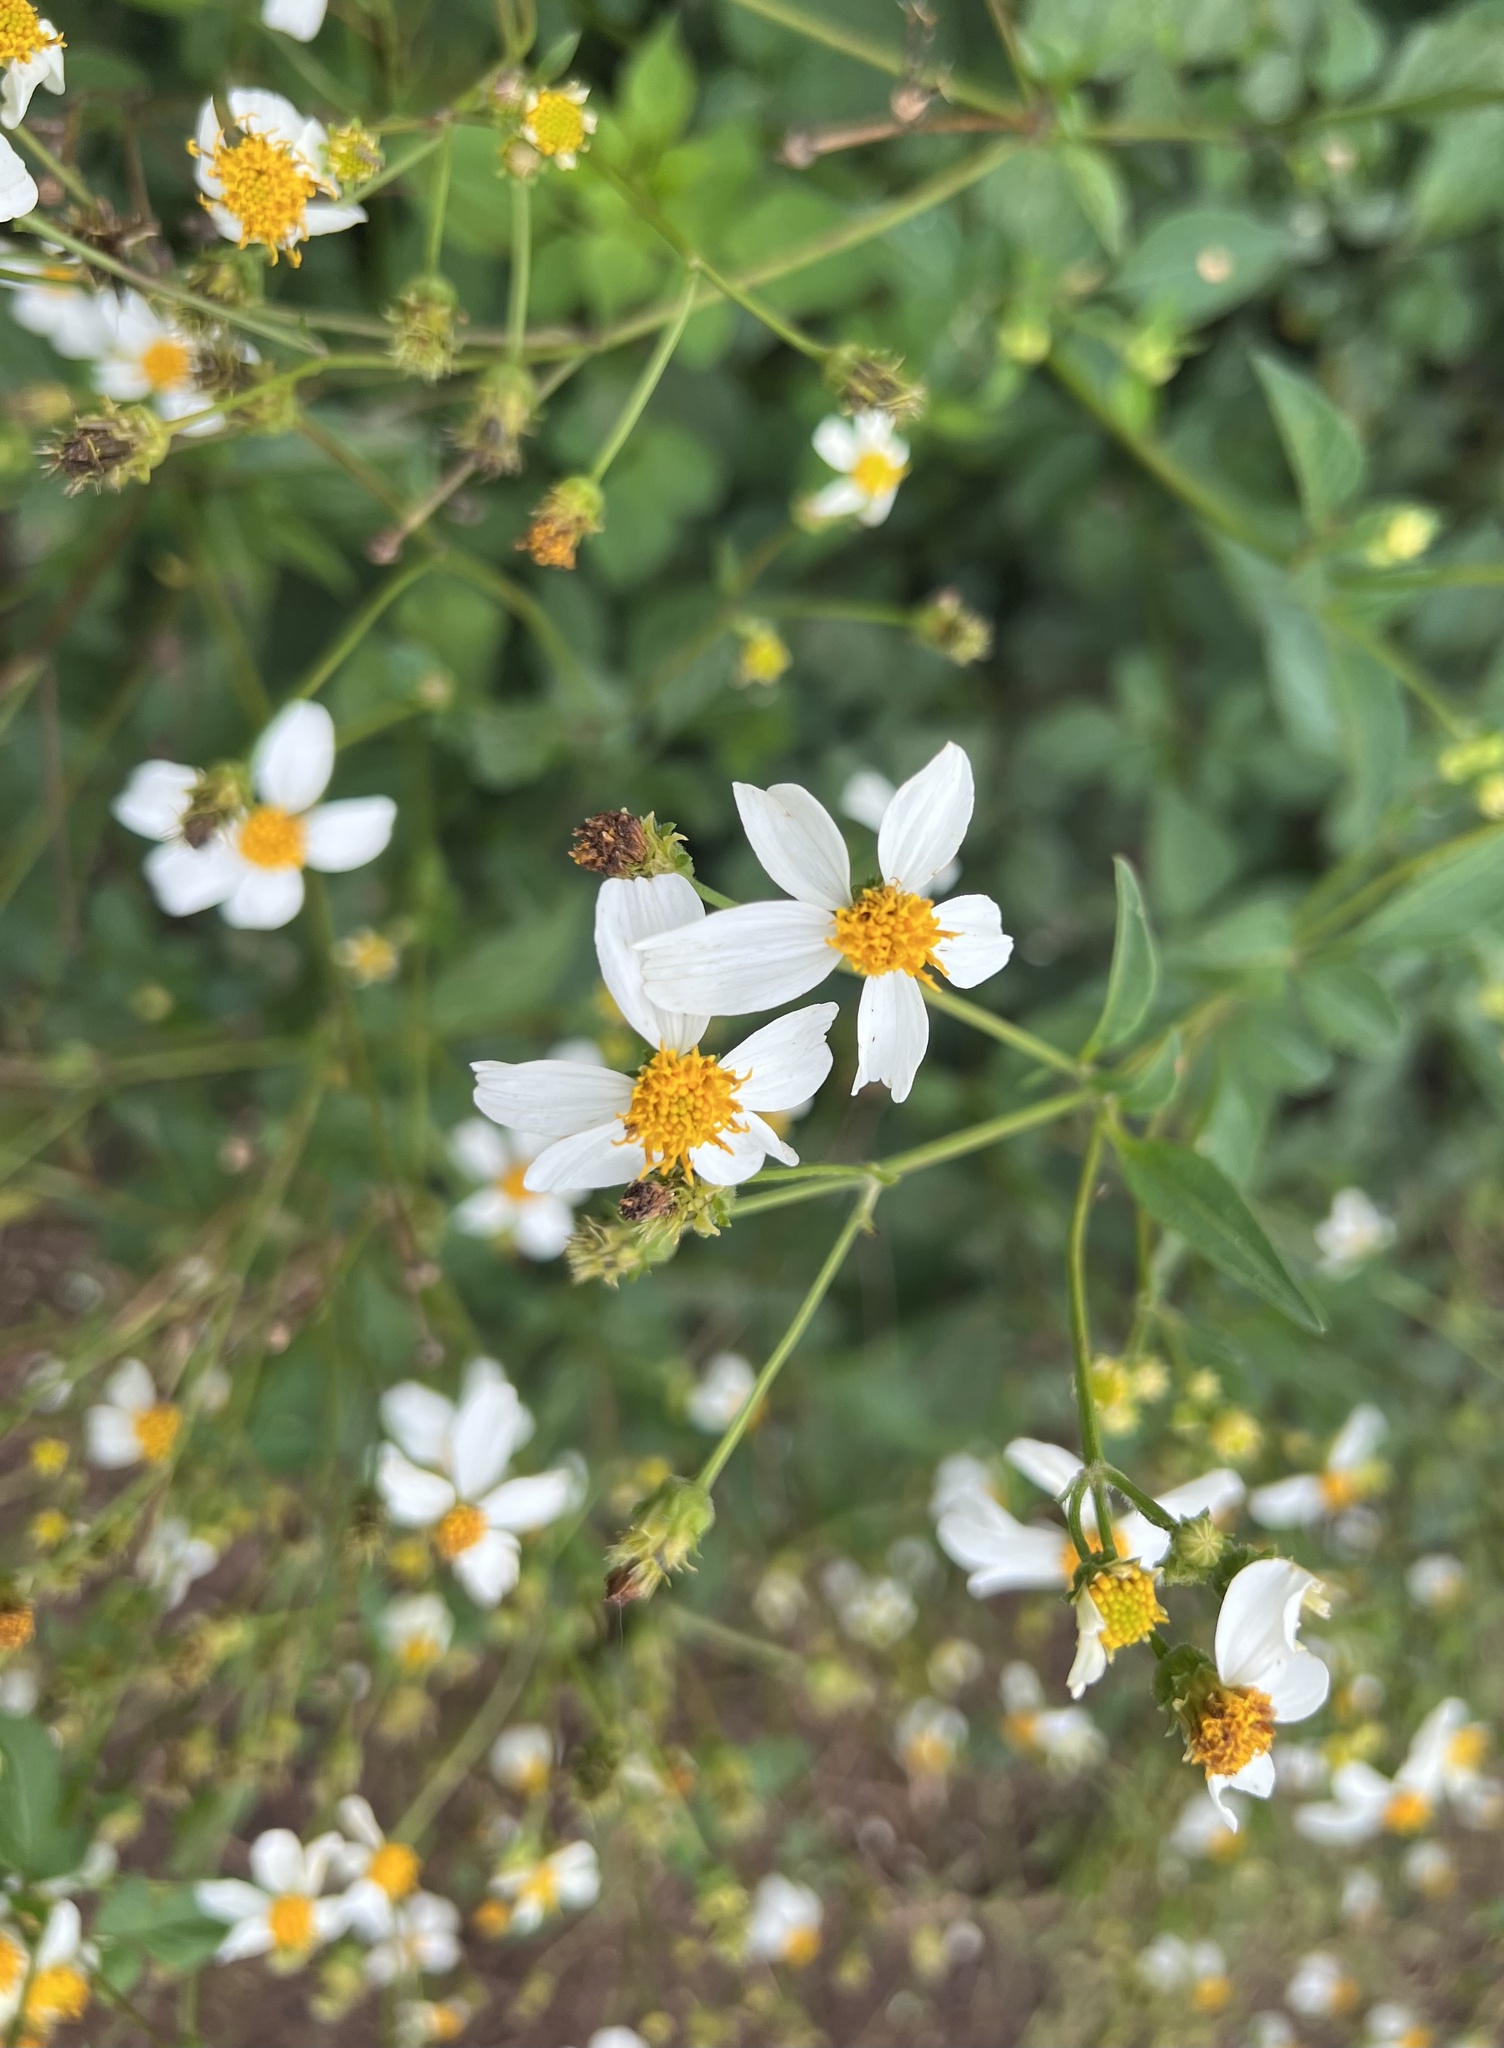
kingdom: Plantae
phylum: Tracheophyta
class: Magnoliopsida
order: Asterales
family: Asteraceae
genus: Bidens
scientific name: Bidens alba
